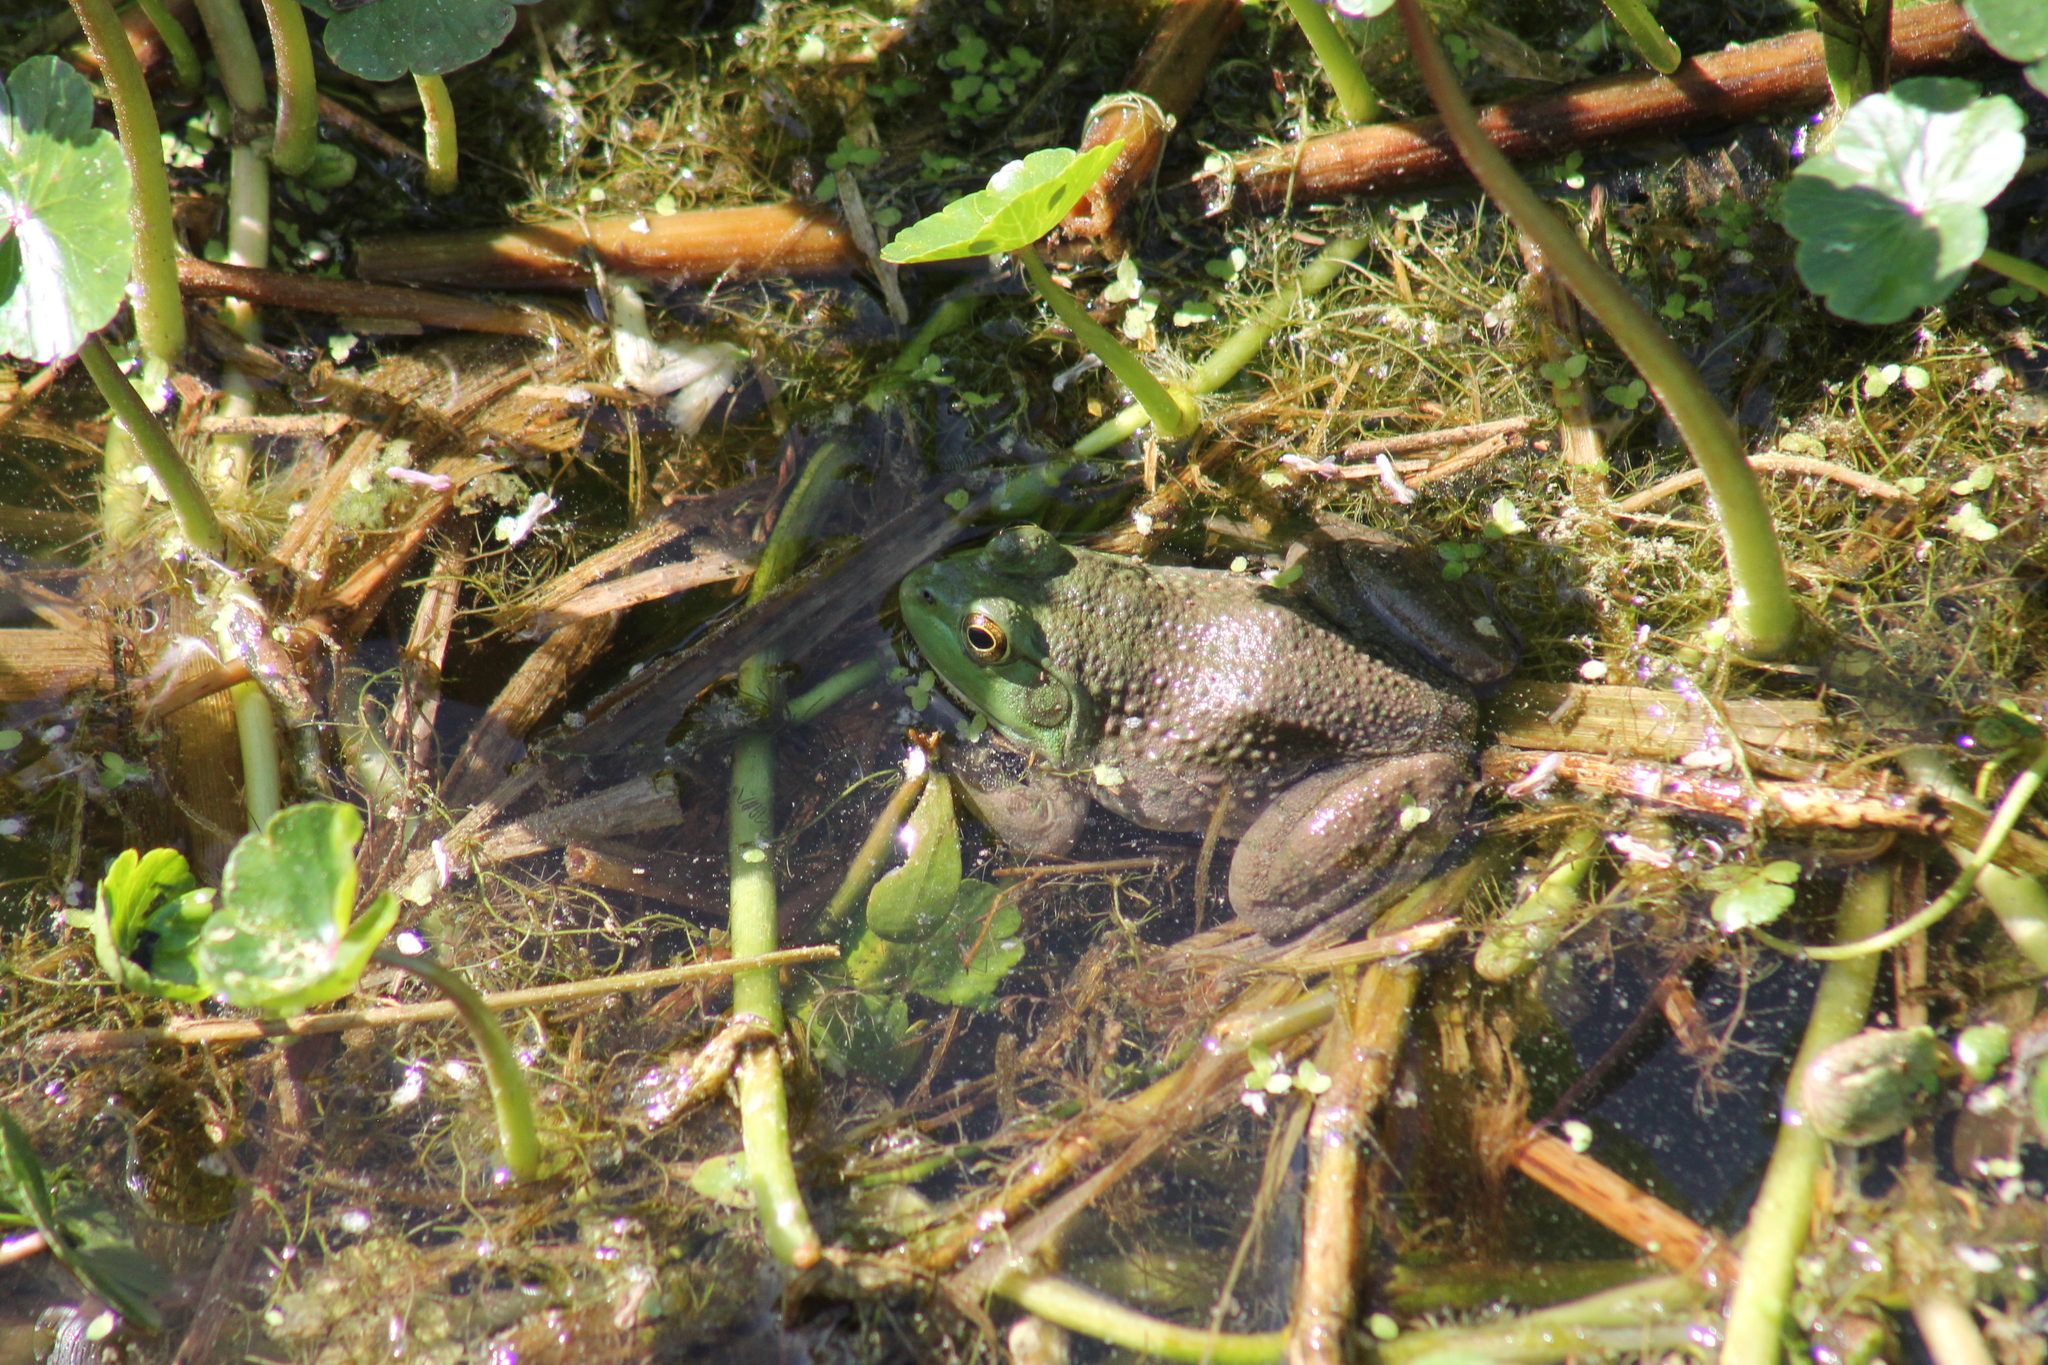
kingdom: Animalia
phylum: Chordata
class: Amphibia
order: Anura
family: Ranidae
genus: Lithobates
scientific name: Lithobates catesbeianus
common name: American bullfrog
